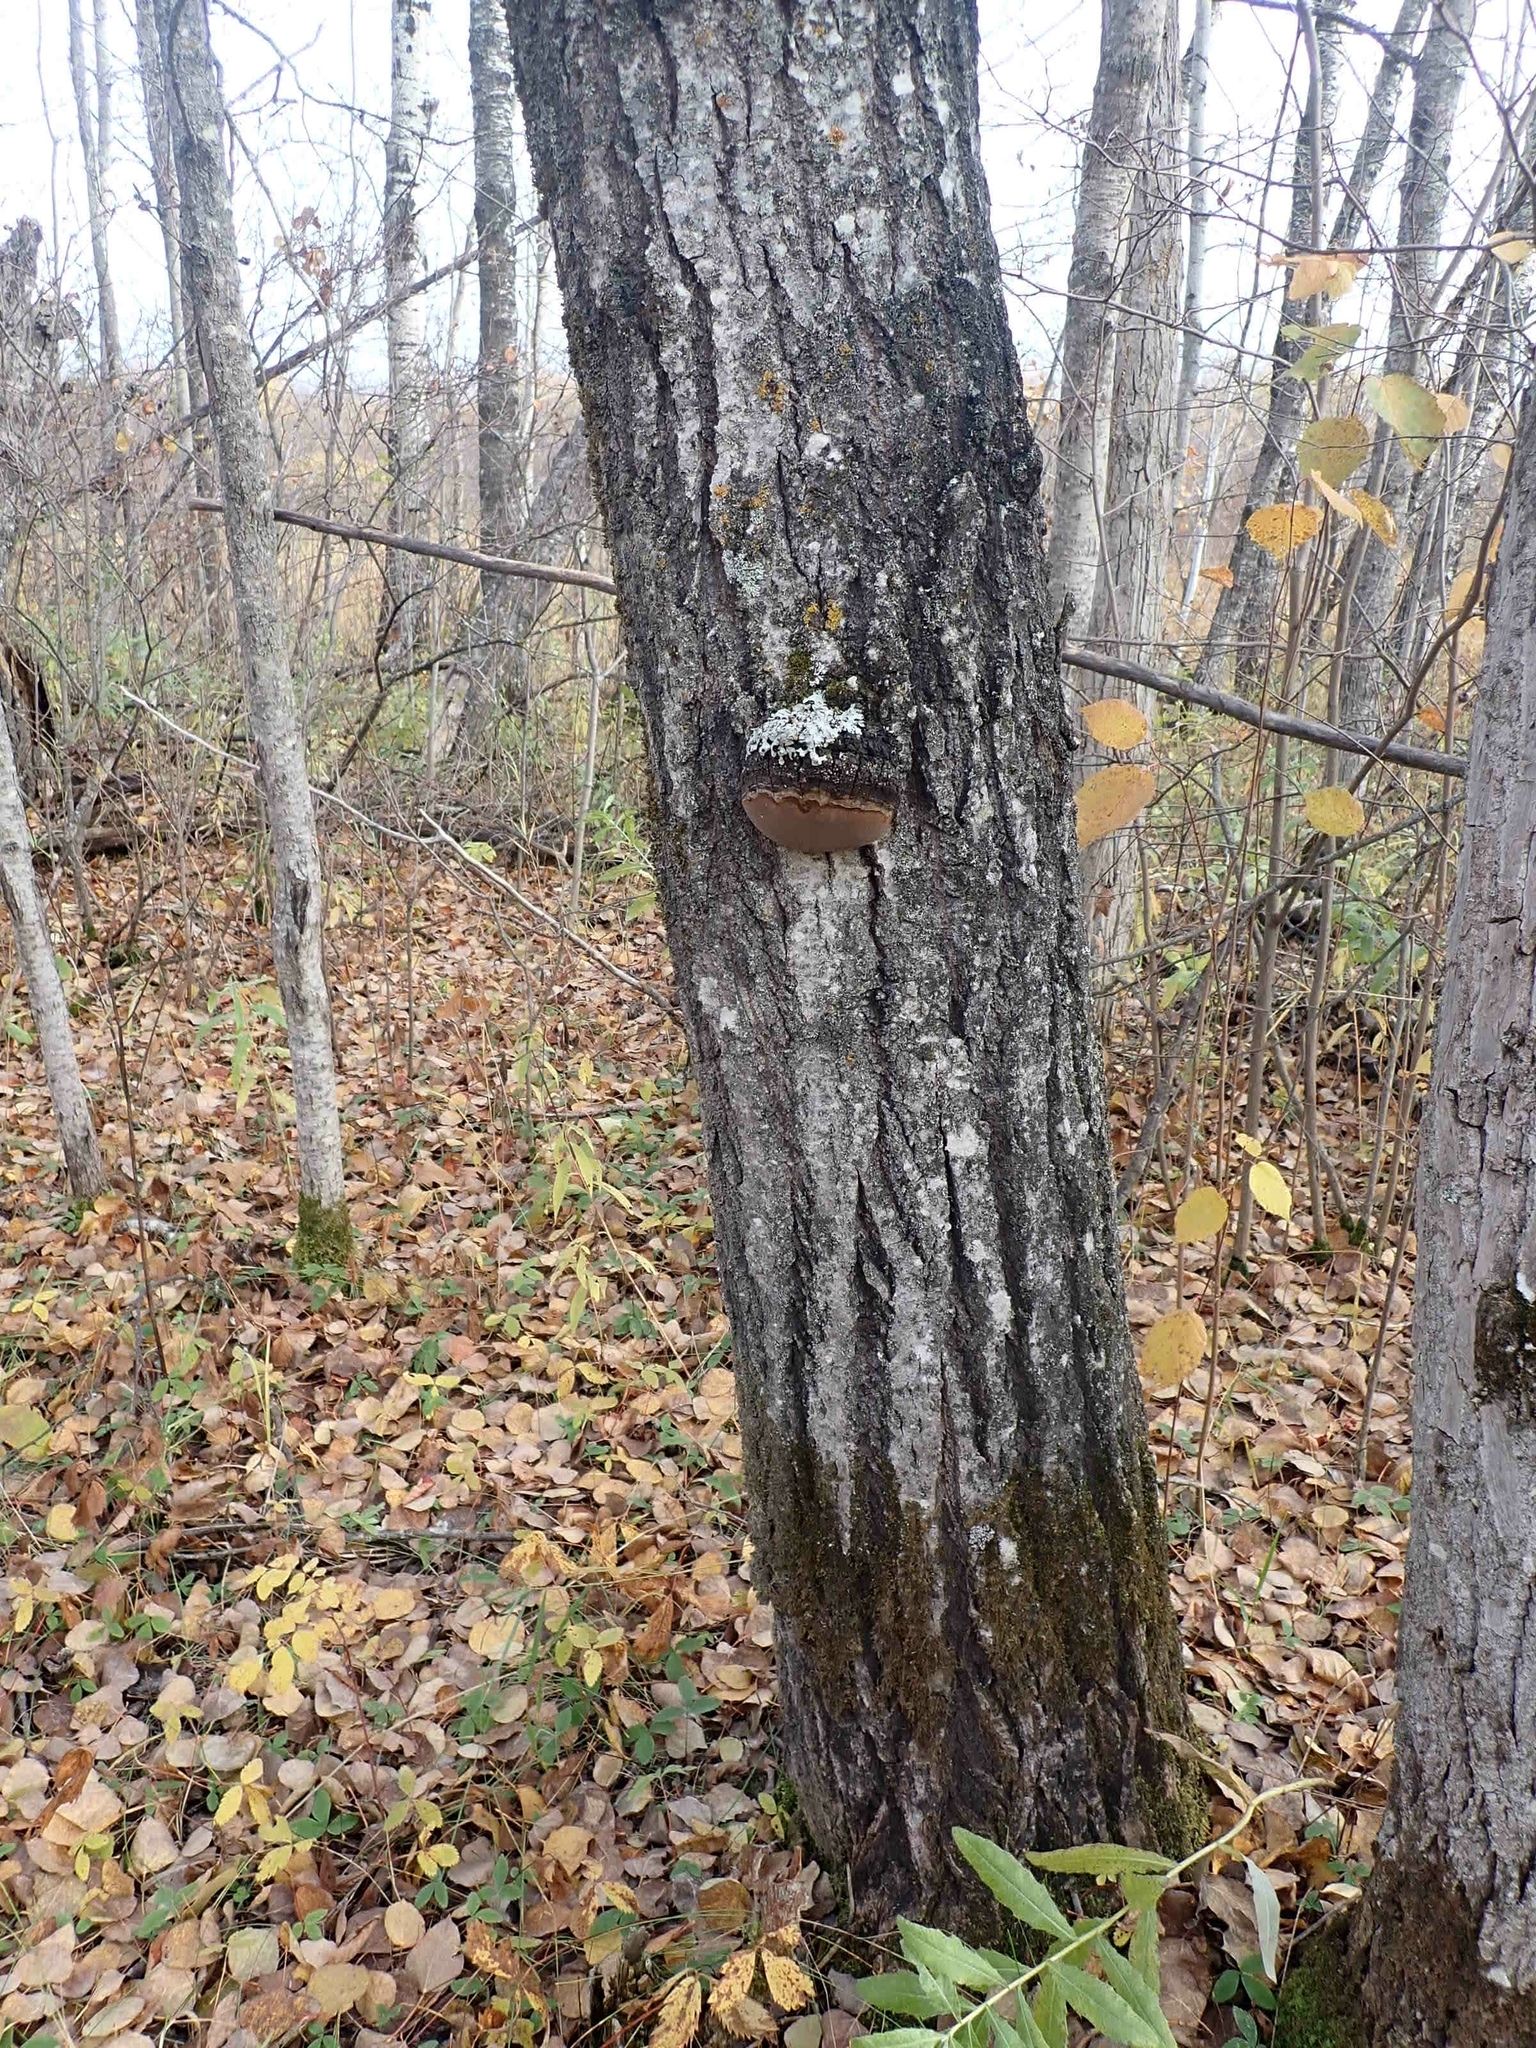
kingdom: Fungi
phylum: Basidiomycota
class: Agaricomycetes
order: Hymenochaetales
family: Hymenochaetaceae
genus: Phellinus
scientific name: Phellinus tremulae
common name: Aspen bracket
